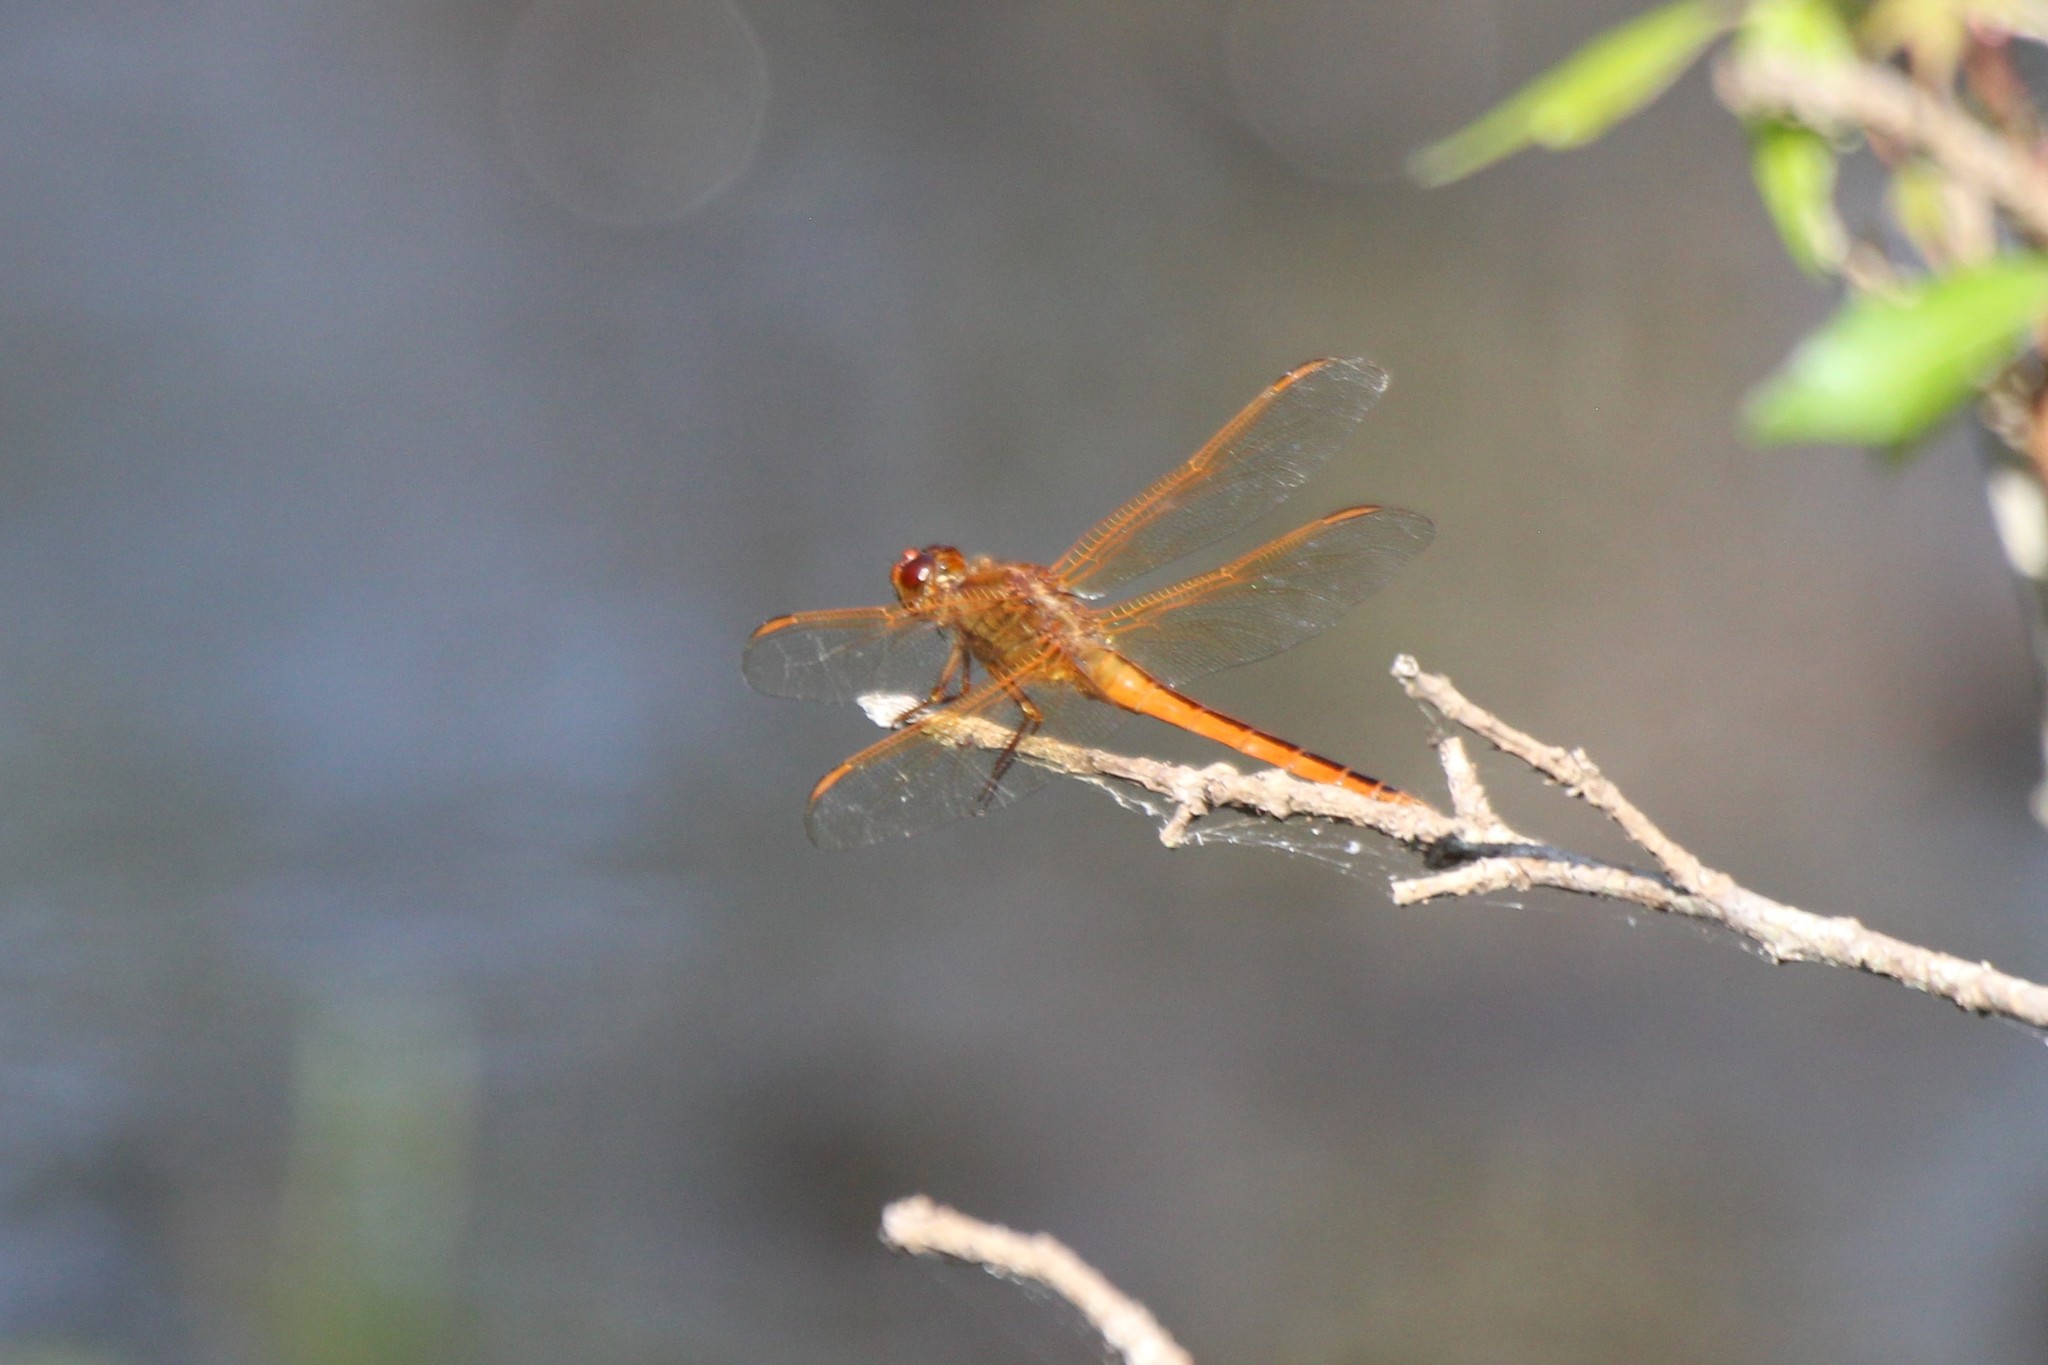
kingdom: Animalia
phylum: Arthropoda
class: Insecta
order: Odonata
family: Libellulidae
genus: Libellula
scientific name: Libellula needhami
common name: Needham's skimmer
